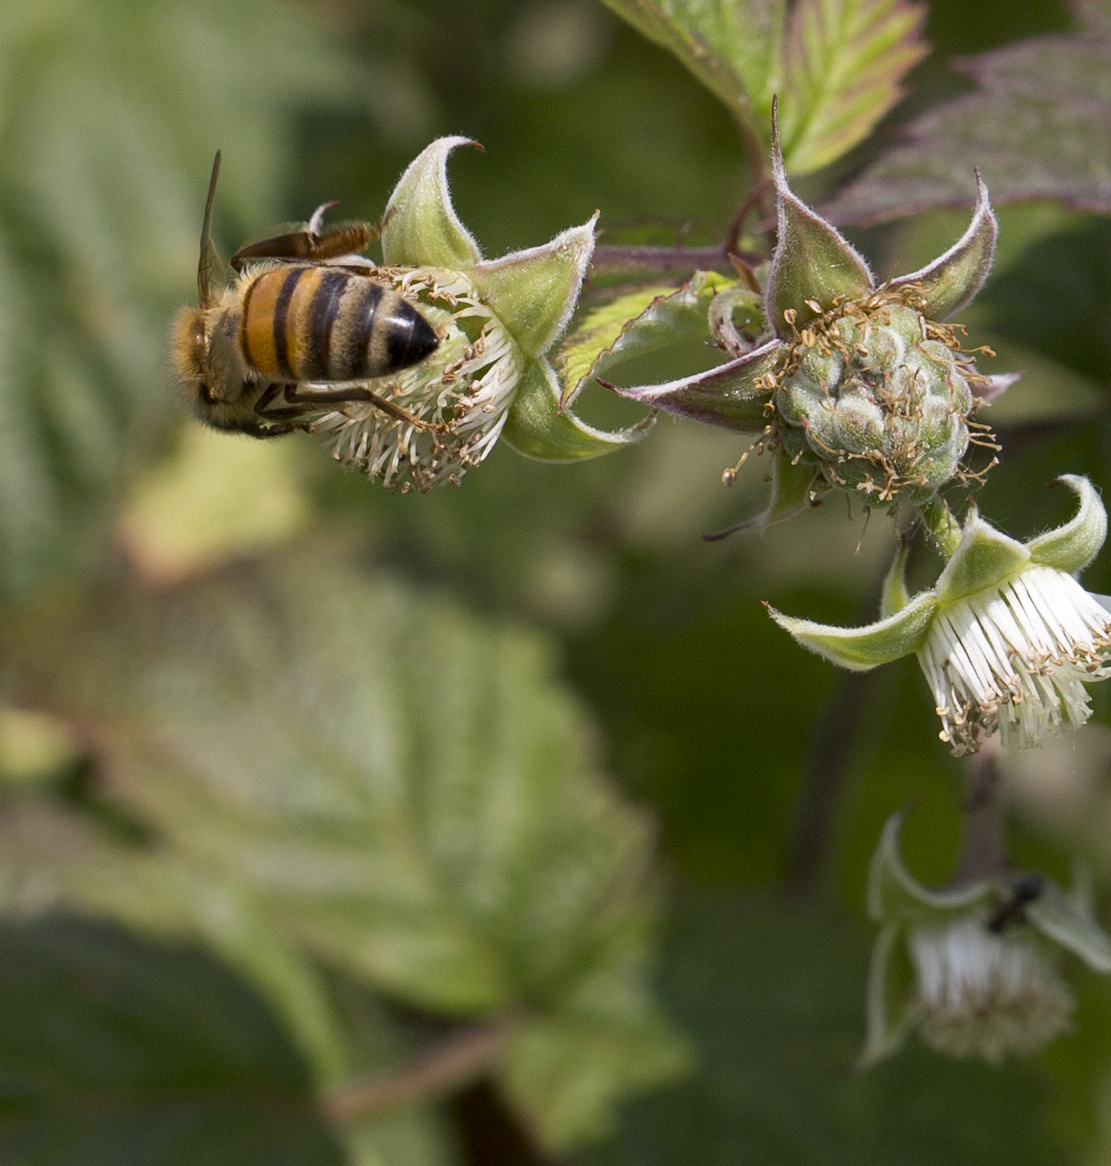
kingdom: Animalia
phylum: Arthropoda
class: Insecta
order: Hymenoptera
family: Apidae
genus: Apis
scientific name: Apis mellifera
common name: Honey bee
